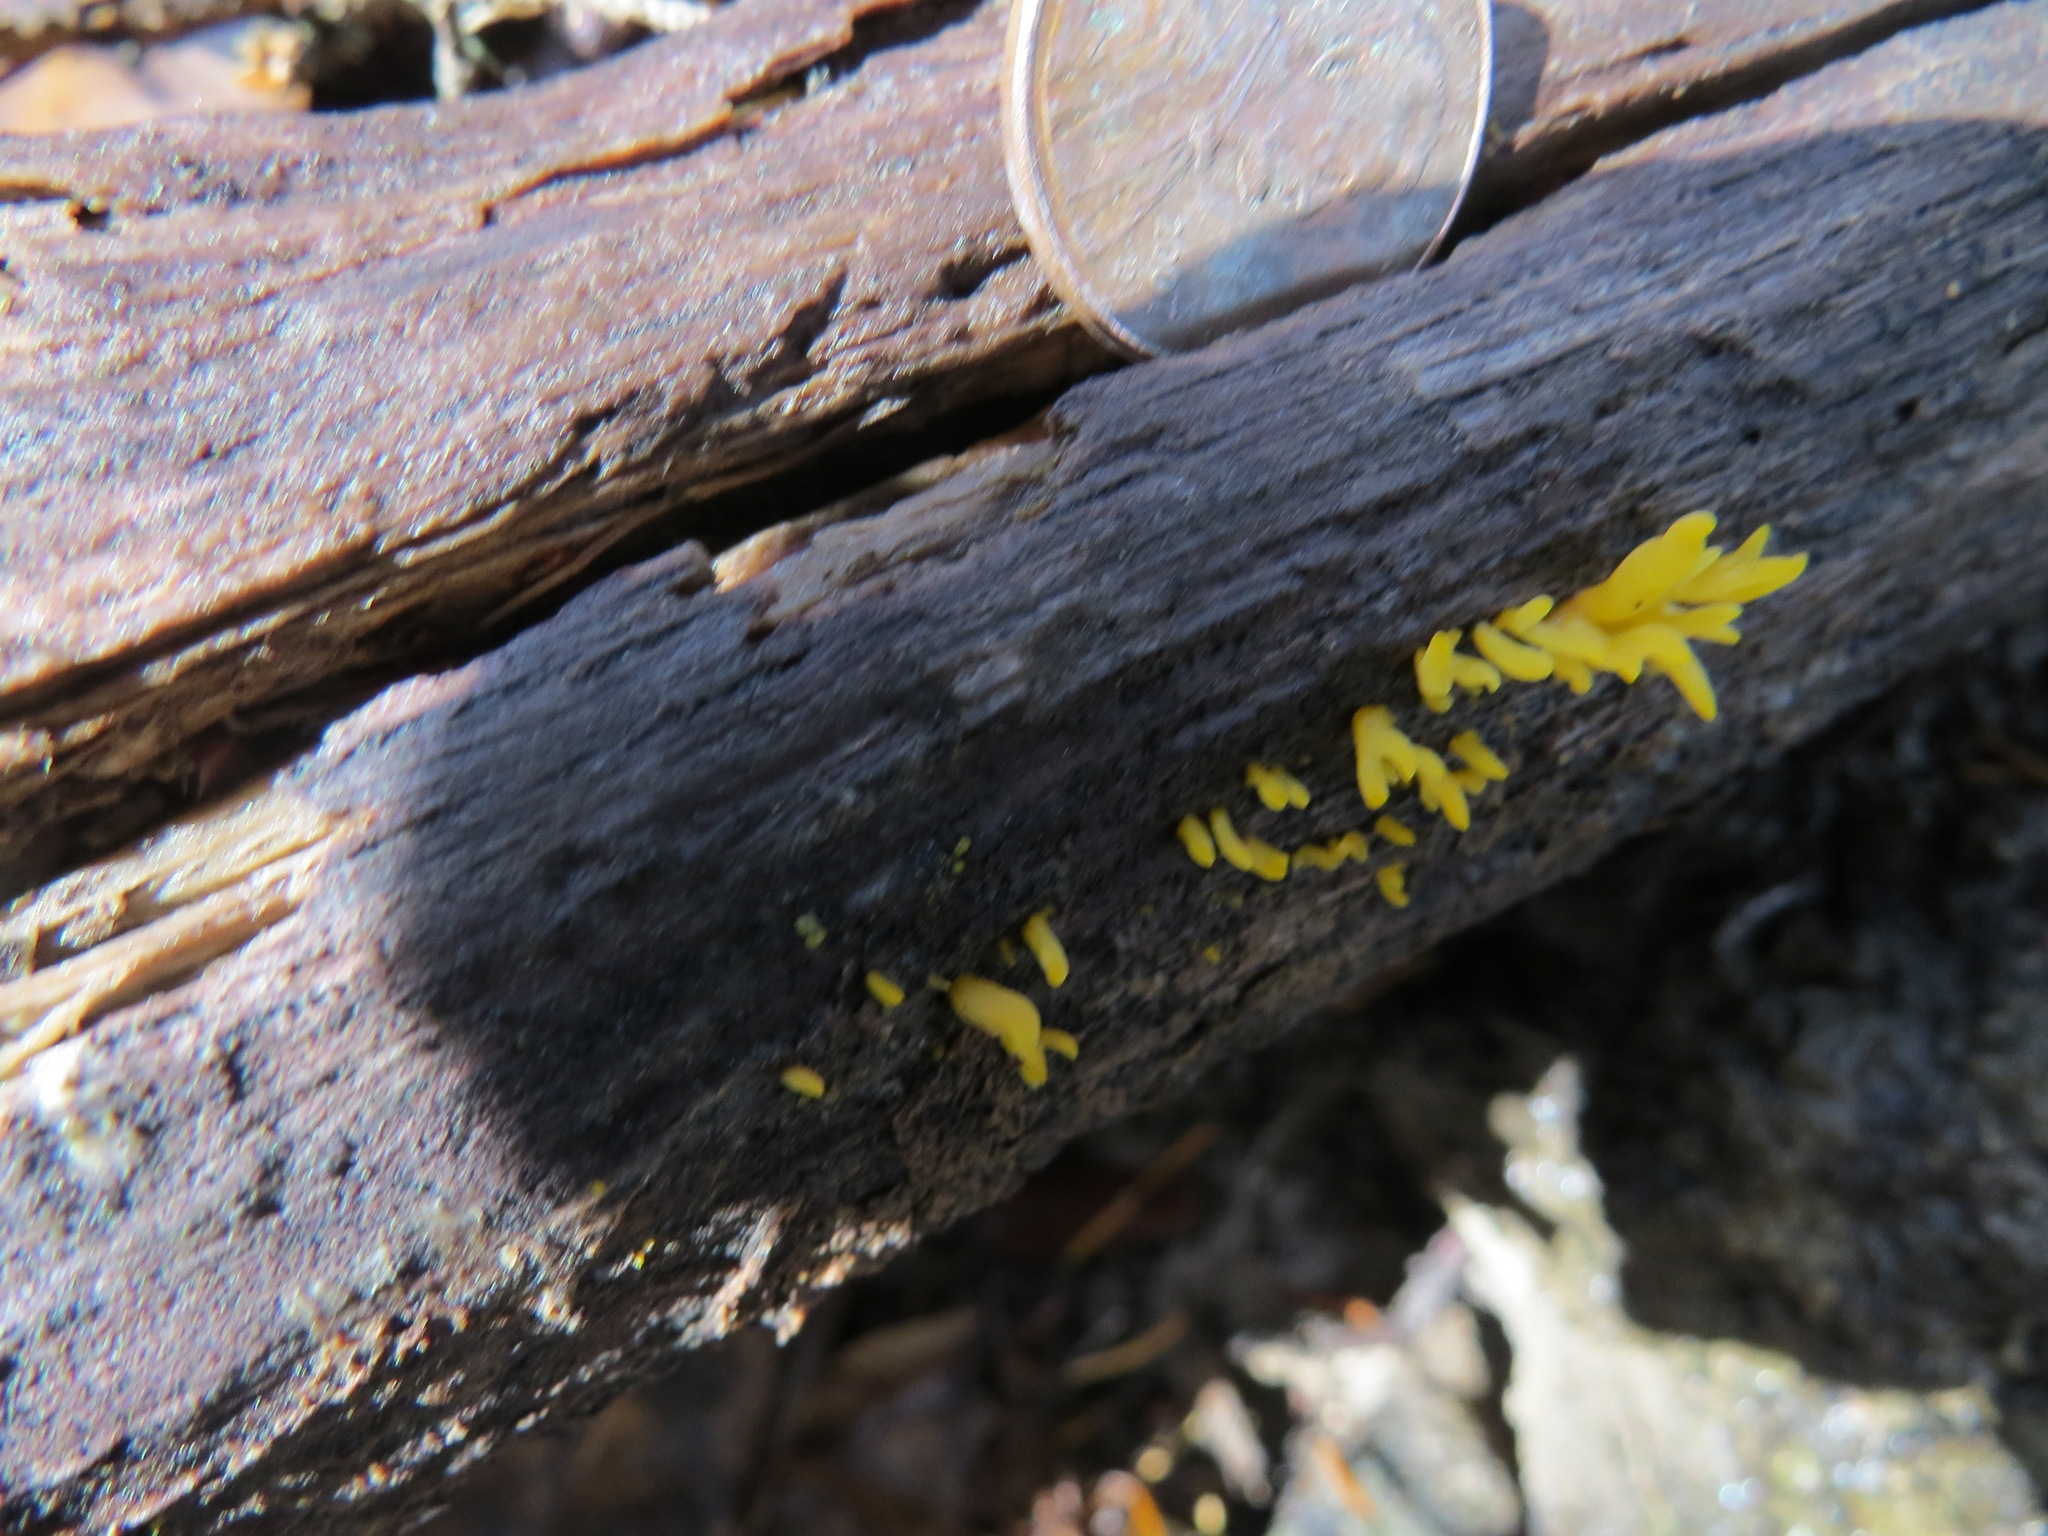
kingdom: Fungi
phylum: Basidiomycota
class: Dacrymycetes
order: Dacrymycetales
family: Dacrymycetaceae
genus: Calocera
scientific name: Calocera cornea
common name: Small stagshorn
